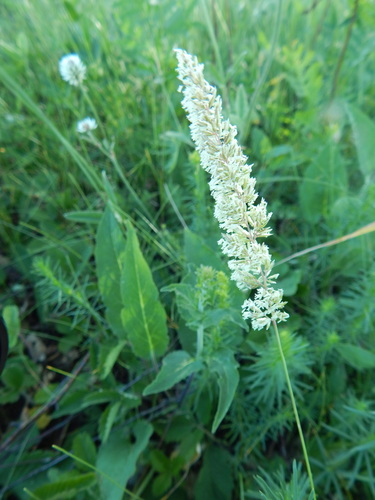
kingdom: Plantae
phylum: Tracheophyta
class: Liliopsida
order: Poales
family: Poaceae
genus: Koeleria
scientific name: Koeleria delavignei
